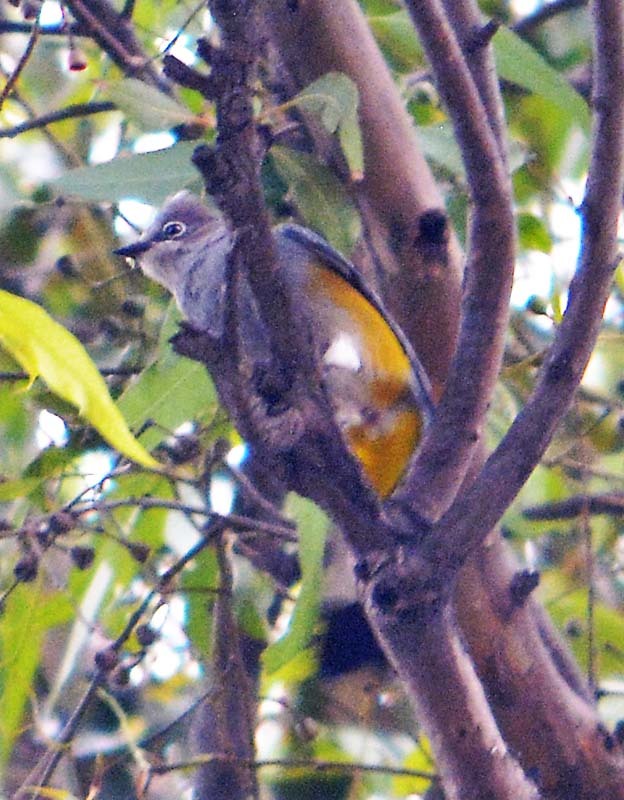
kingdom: Animalia
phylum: Chordata
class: Aves
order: Passeriformes
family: Ptilogonatidae
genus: Ptilogonys
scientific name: Ptilogonys cinereus
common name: Gray silky-flycatcher
